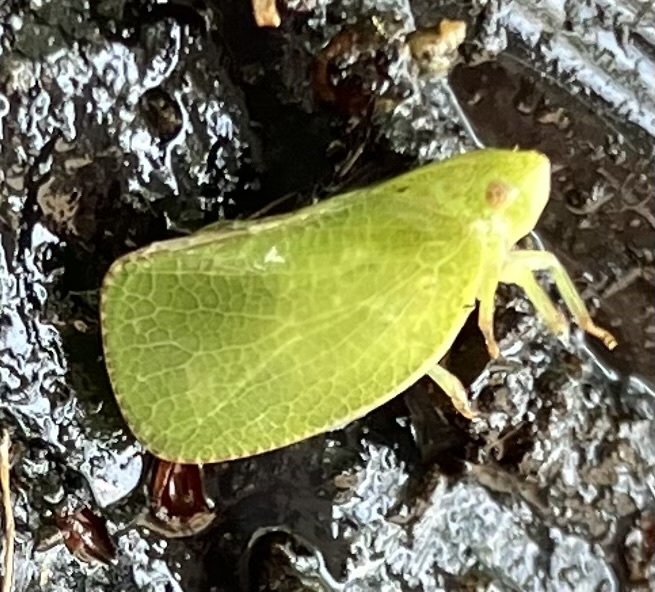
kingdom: Animalia
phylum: Arthropoda
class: Insecta
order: Hemiptera
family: Acanaloniidae
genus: Acanalonia
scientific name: Acanalonia conica
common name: Green cone-headed planthopper
